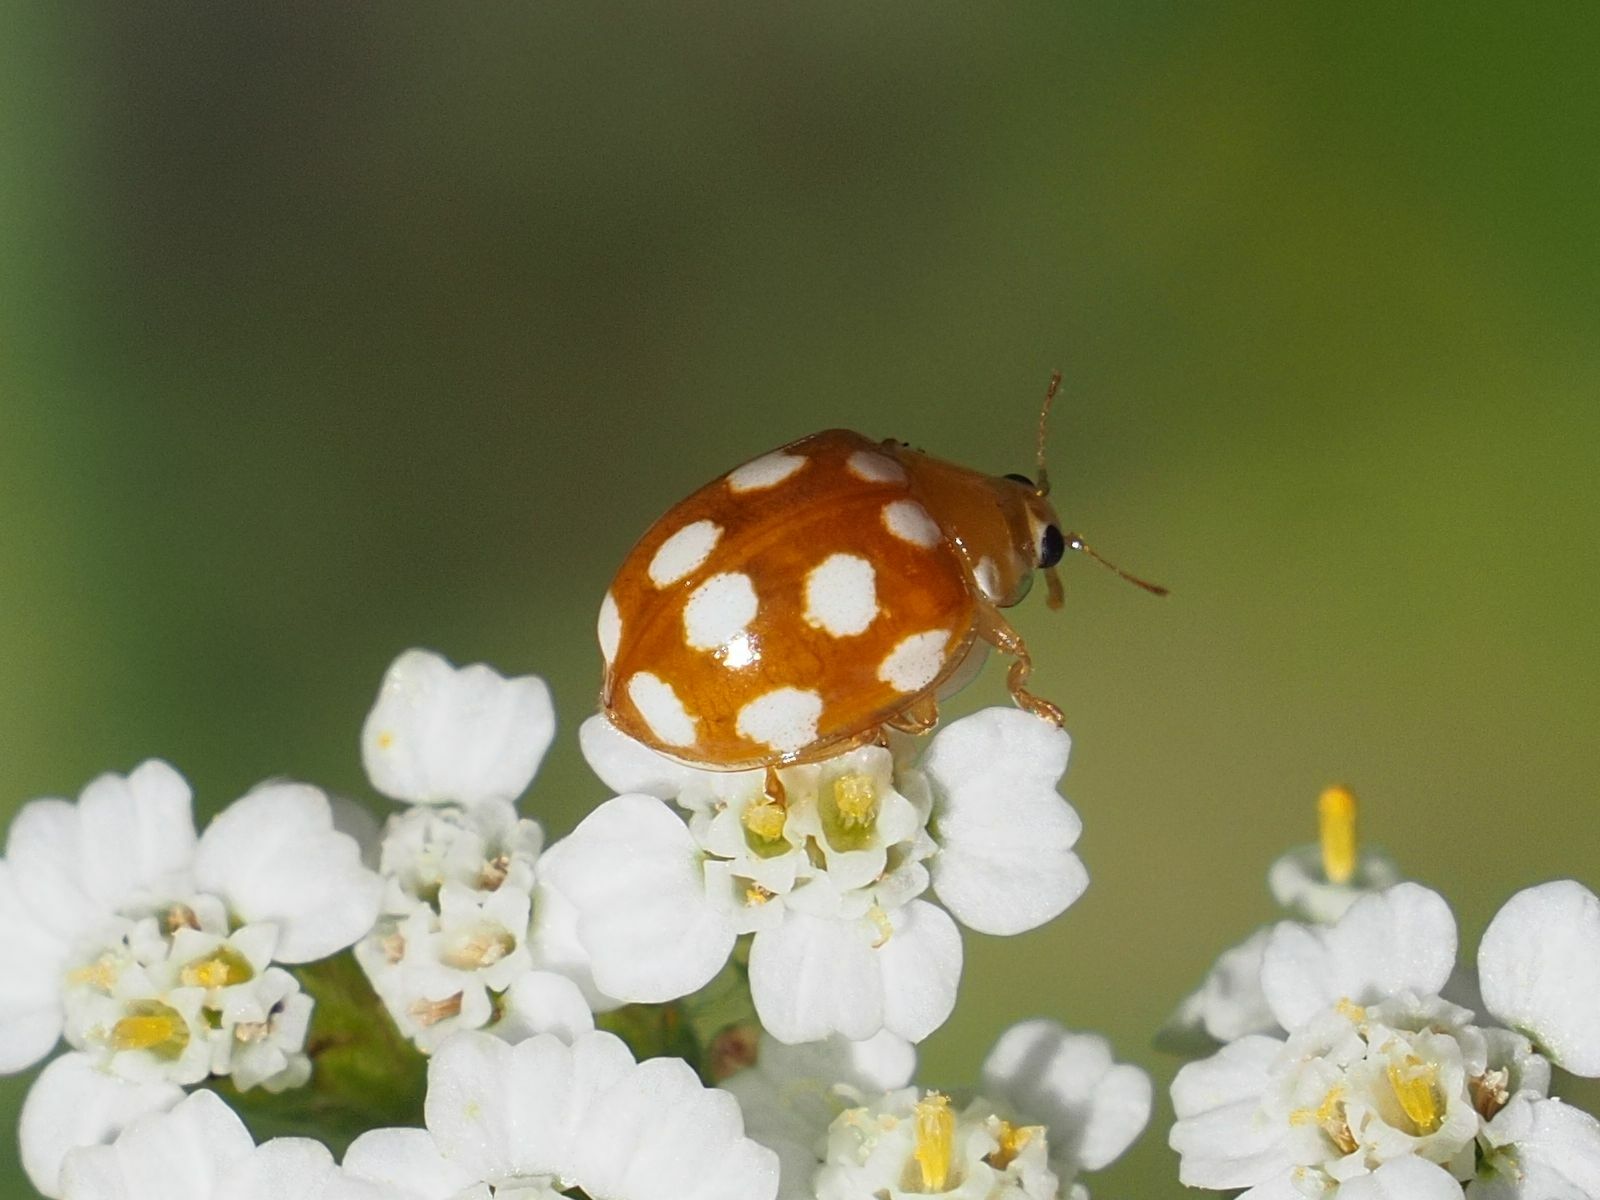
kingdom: Animalia
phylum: Arthropoda
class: Insecta
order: Coleoptera
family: Coccinellidae
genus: Vibidia
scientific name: Vibidia duodecimguttata
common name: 12-spot ladybird
